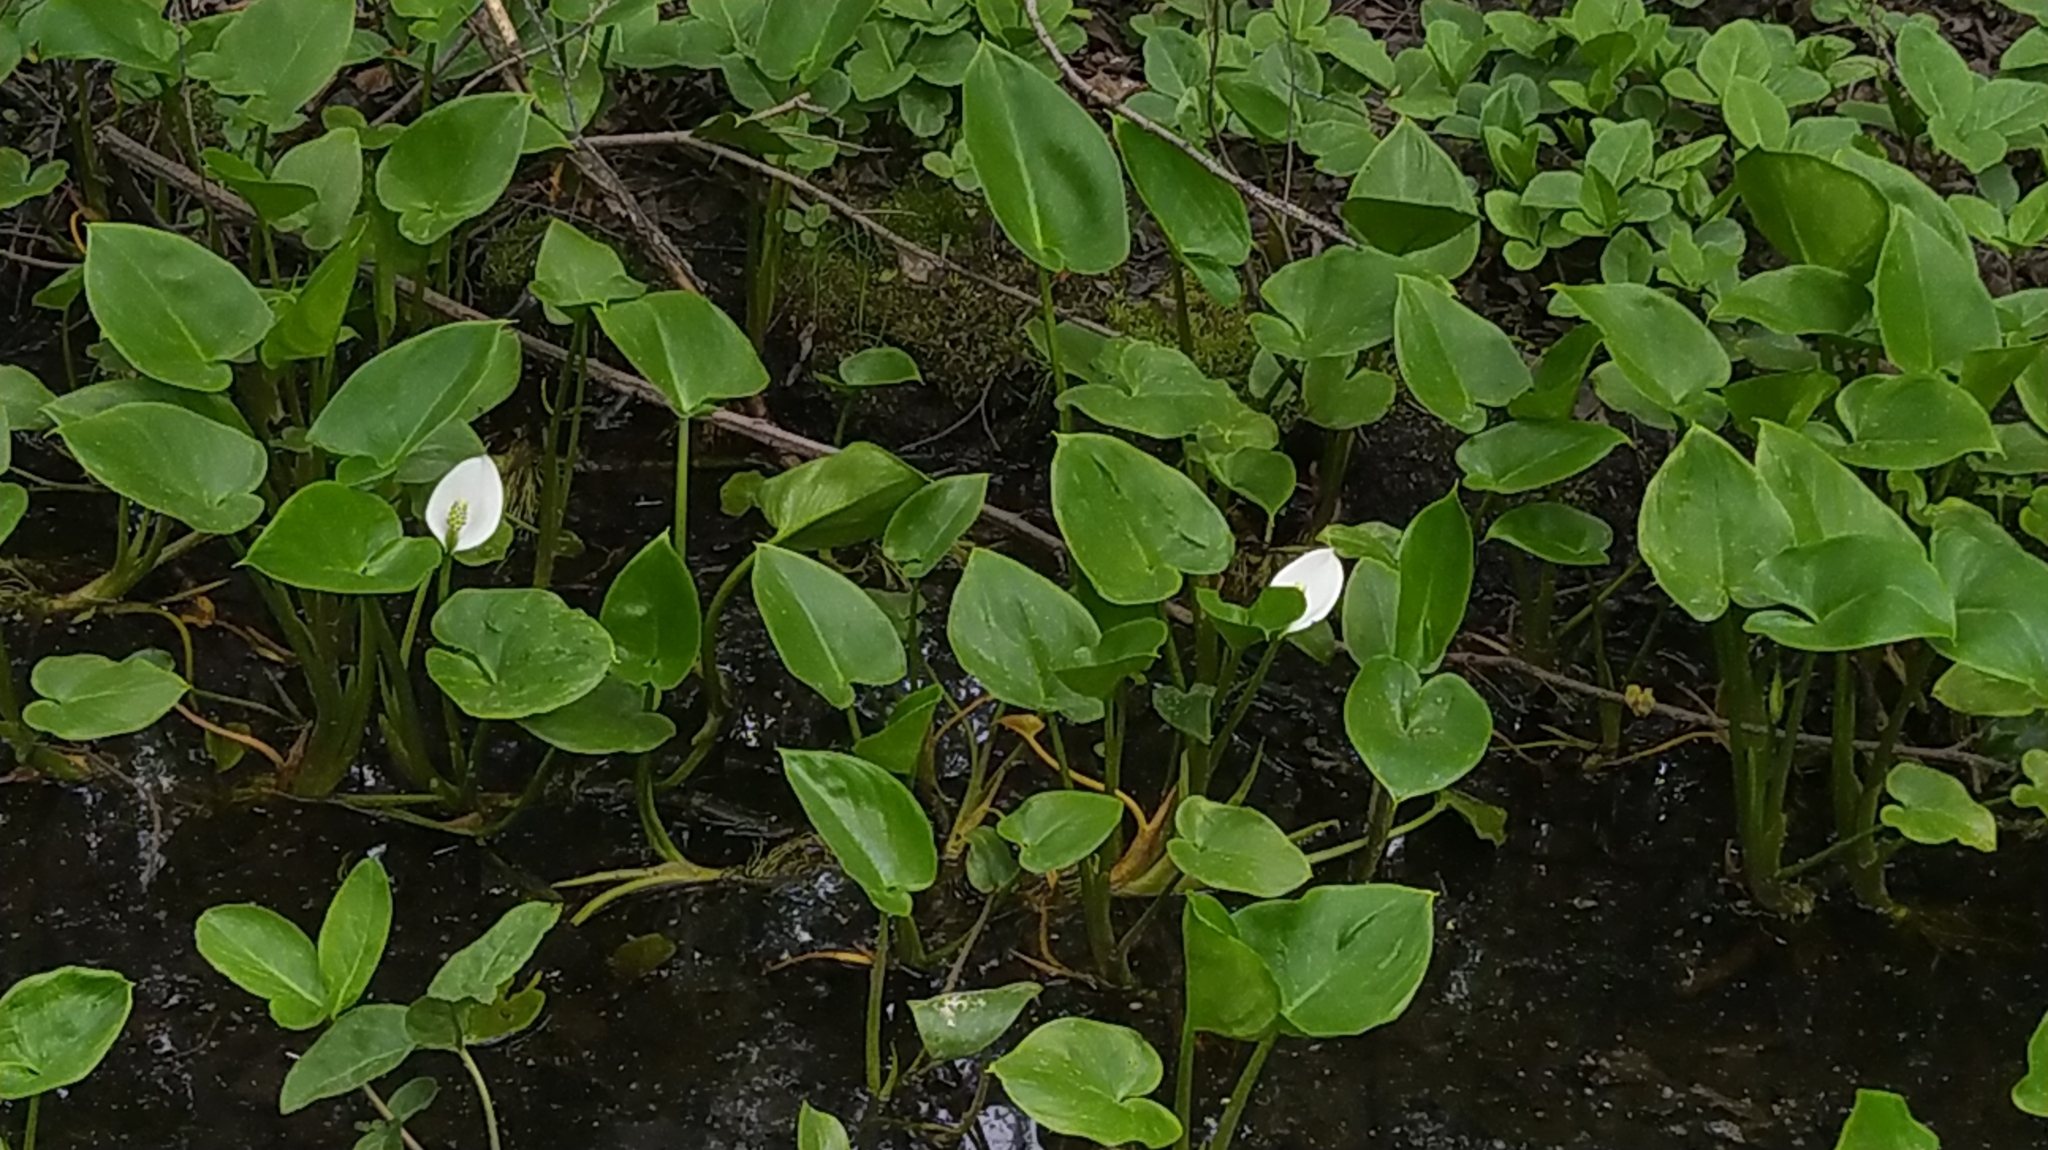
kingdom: Plantae
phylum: Tracheophyta
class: Liliopsida
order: Alismatales
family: Araceae
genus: Calla
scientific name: Calla palustris
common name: Bog arum
